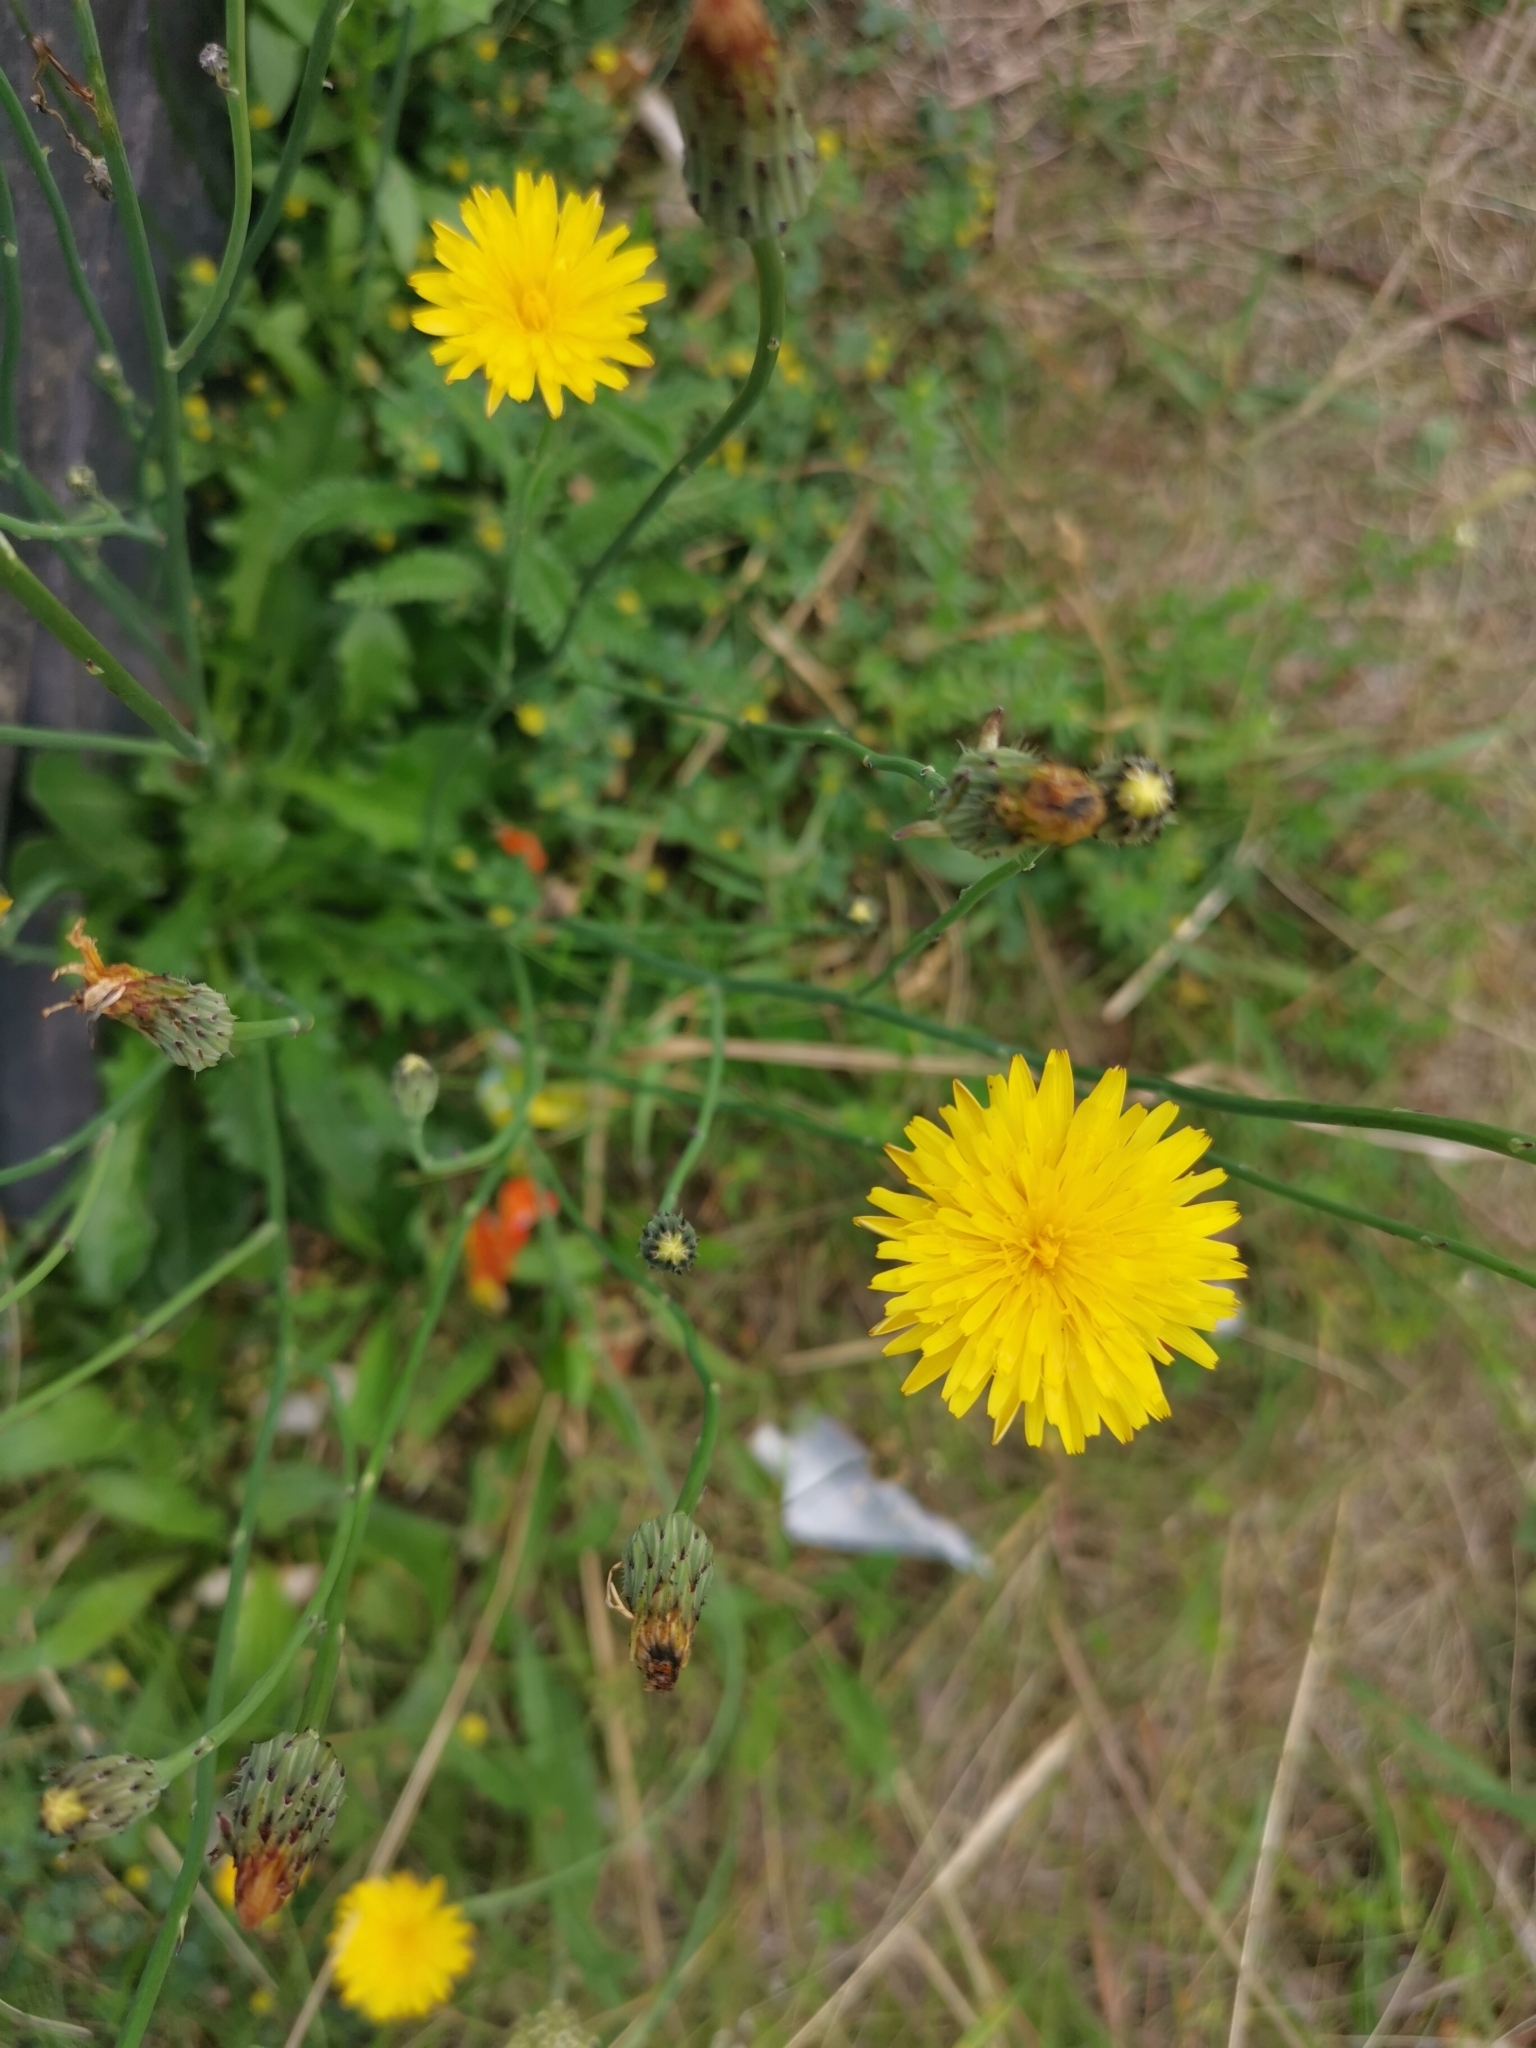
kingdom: Plantae
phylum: Tracheophyta
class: Magnoliopsida
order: Asterales
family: Asteraceae
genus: Hypochaeris
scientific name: Hypochaeris radicata
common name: Flatweed
